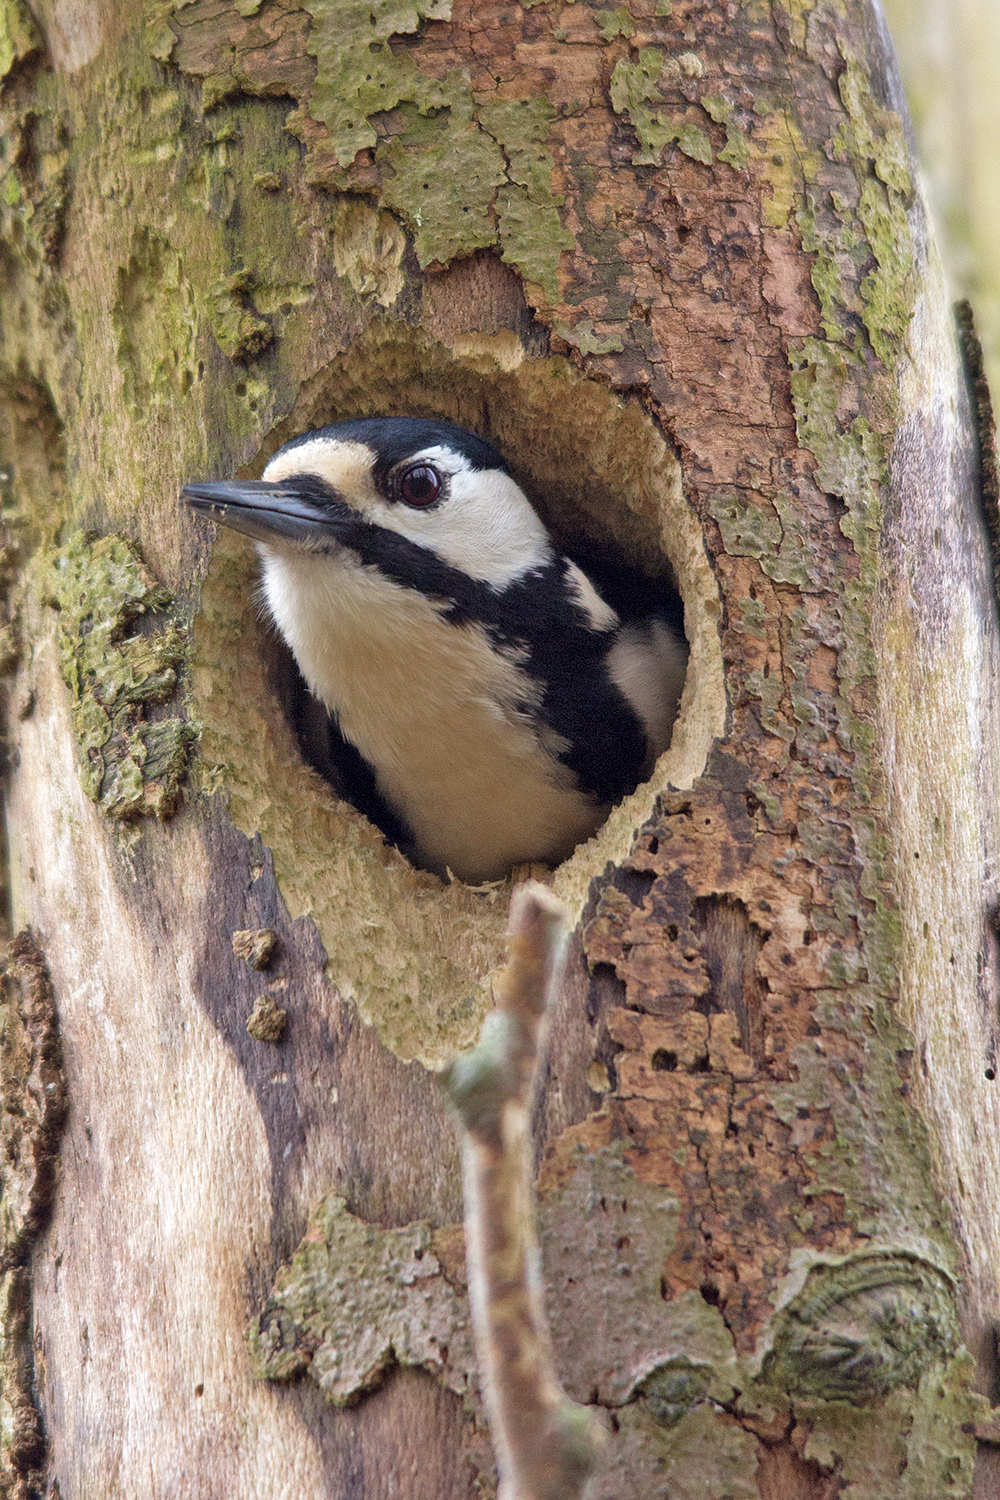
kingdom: Animalia
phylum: Chordata
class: Aves
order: Piciformes
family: Picidae
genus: Dendrocopos
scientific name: Dendrocopos major
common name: Great spotted woodpecker
